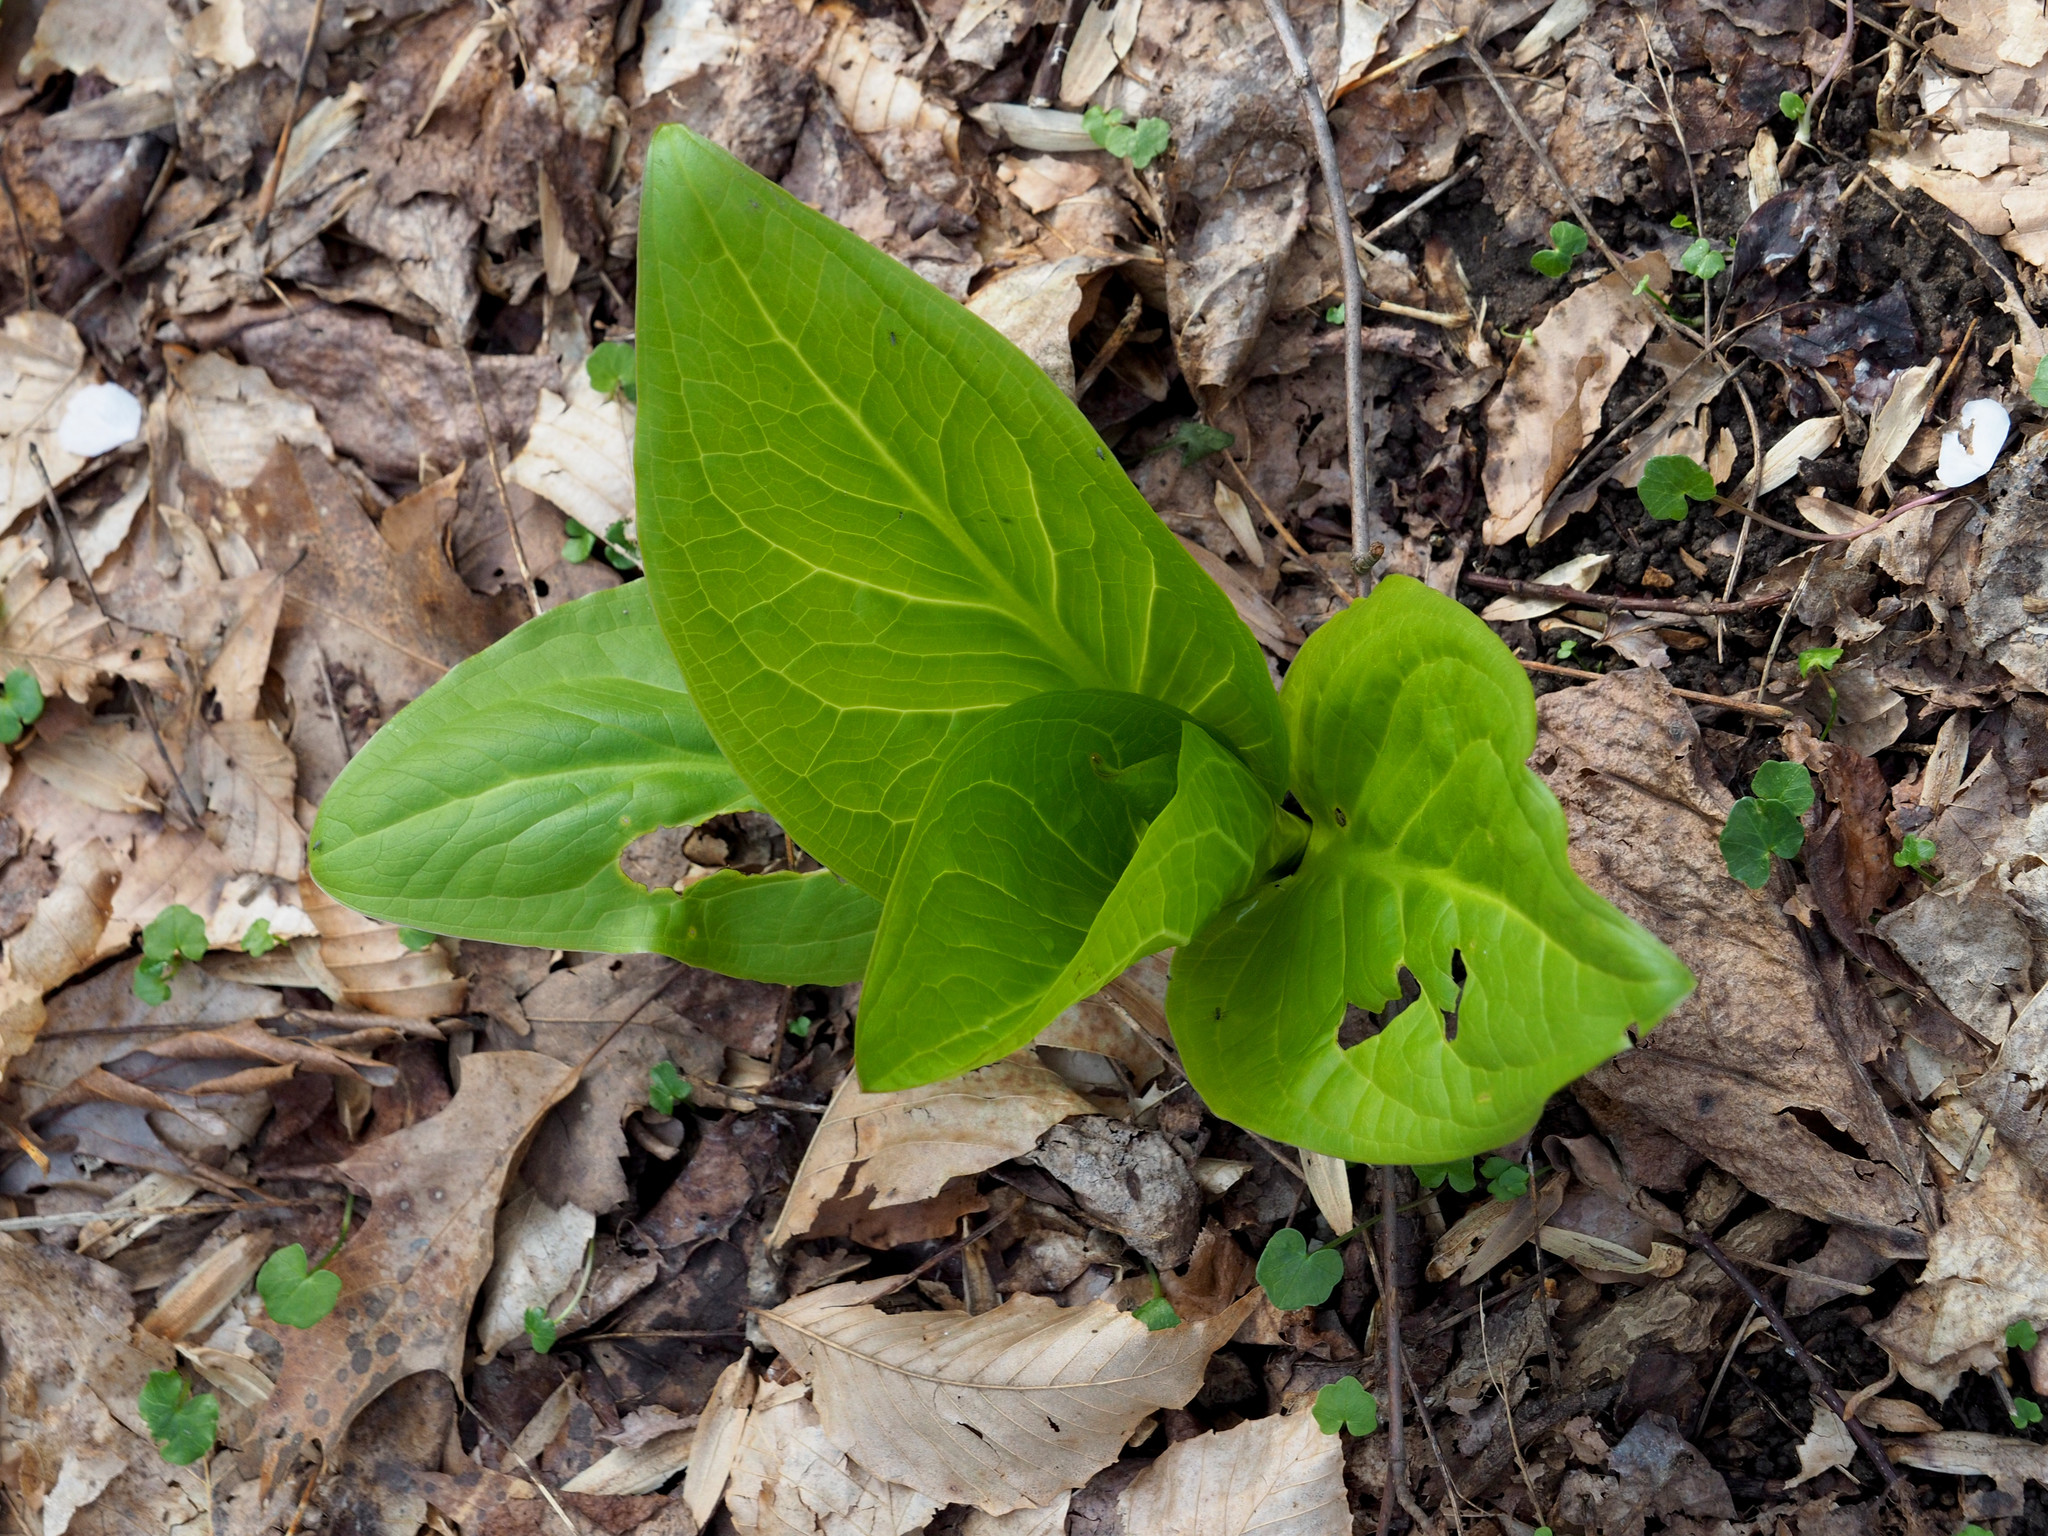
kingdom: Plantae
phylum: Tracheophyta
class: Liliopsida
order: Alismatales
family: Araceae
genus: Symplocarpus
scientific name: Symplocarpus foetidus
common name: Eastern skunk cabbage
